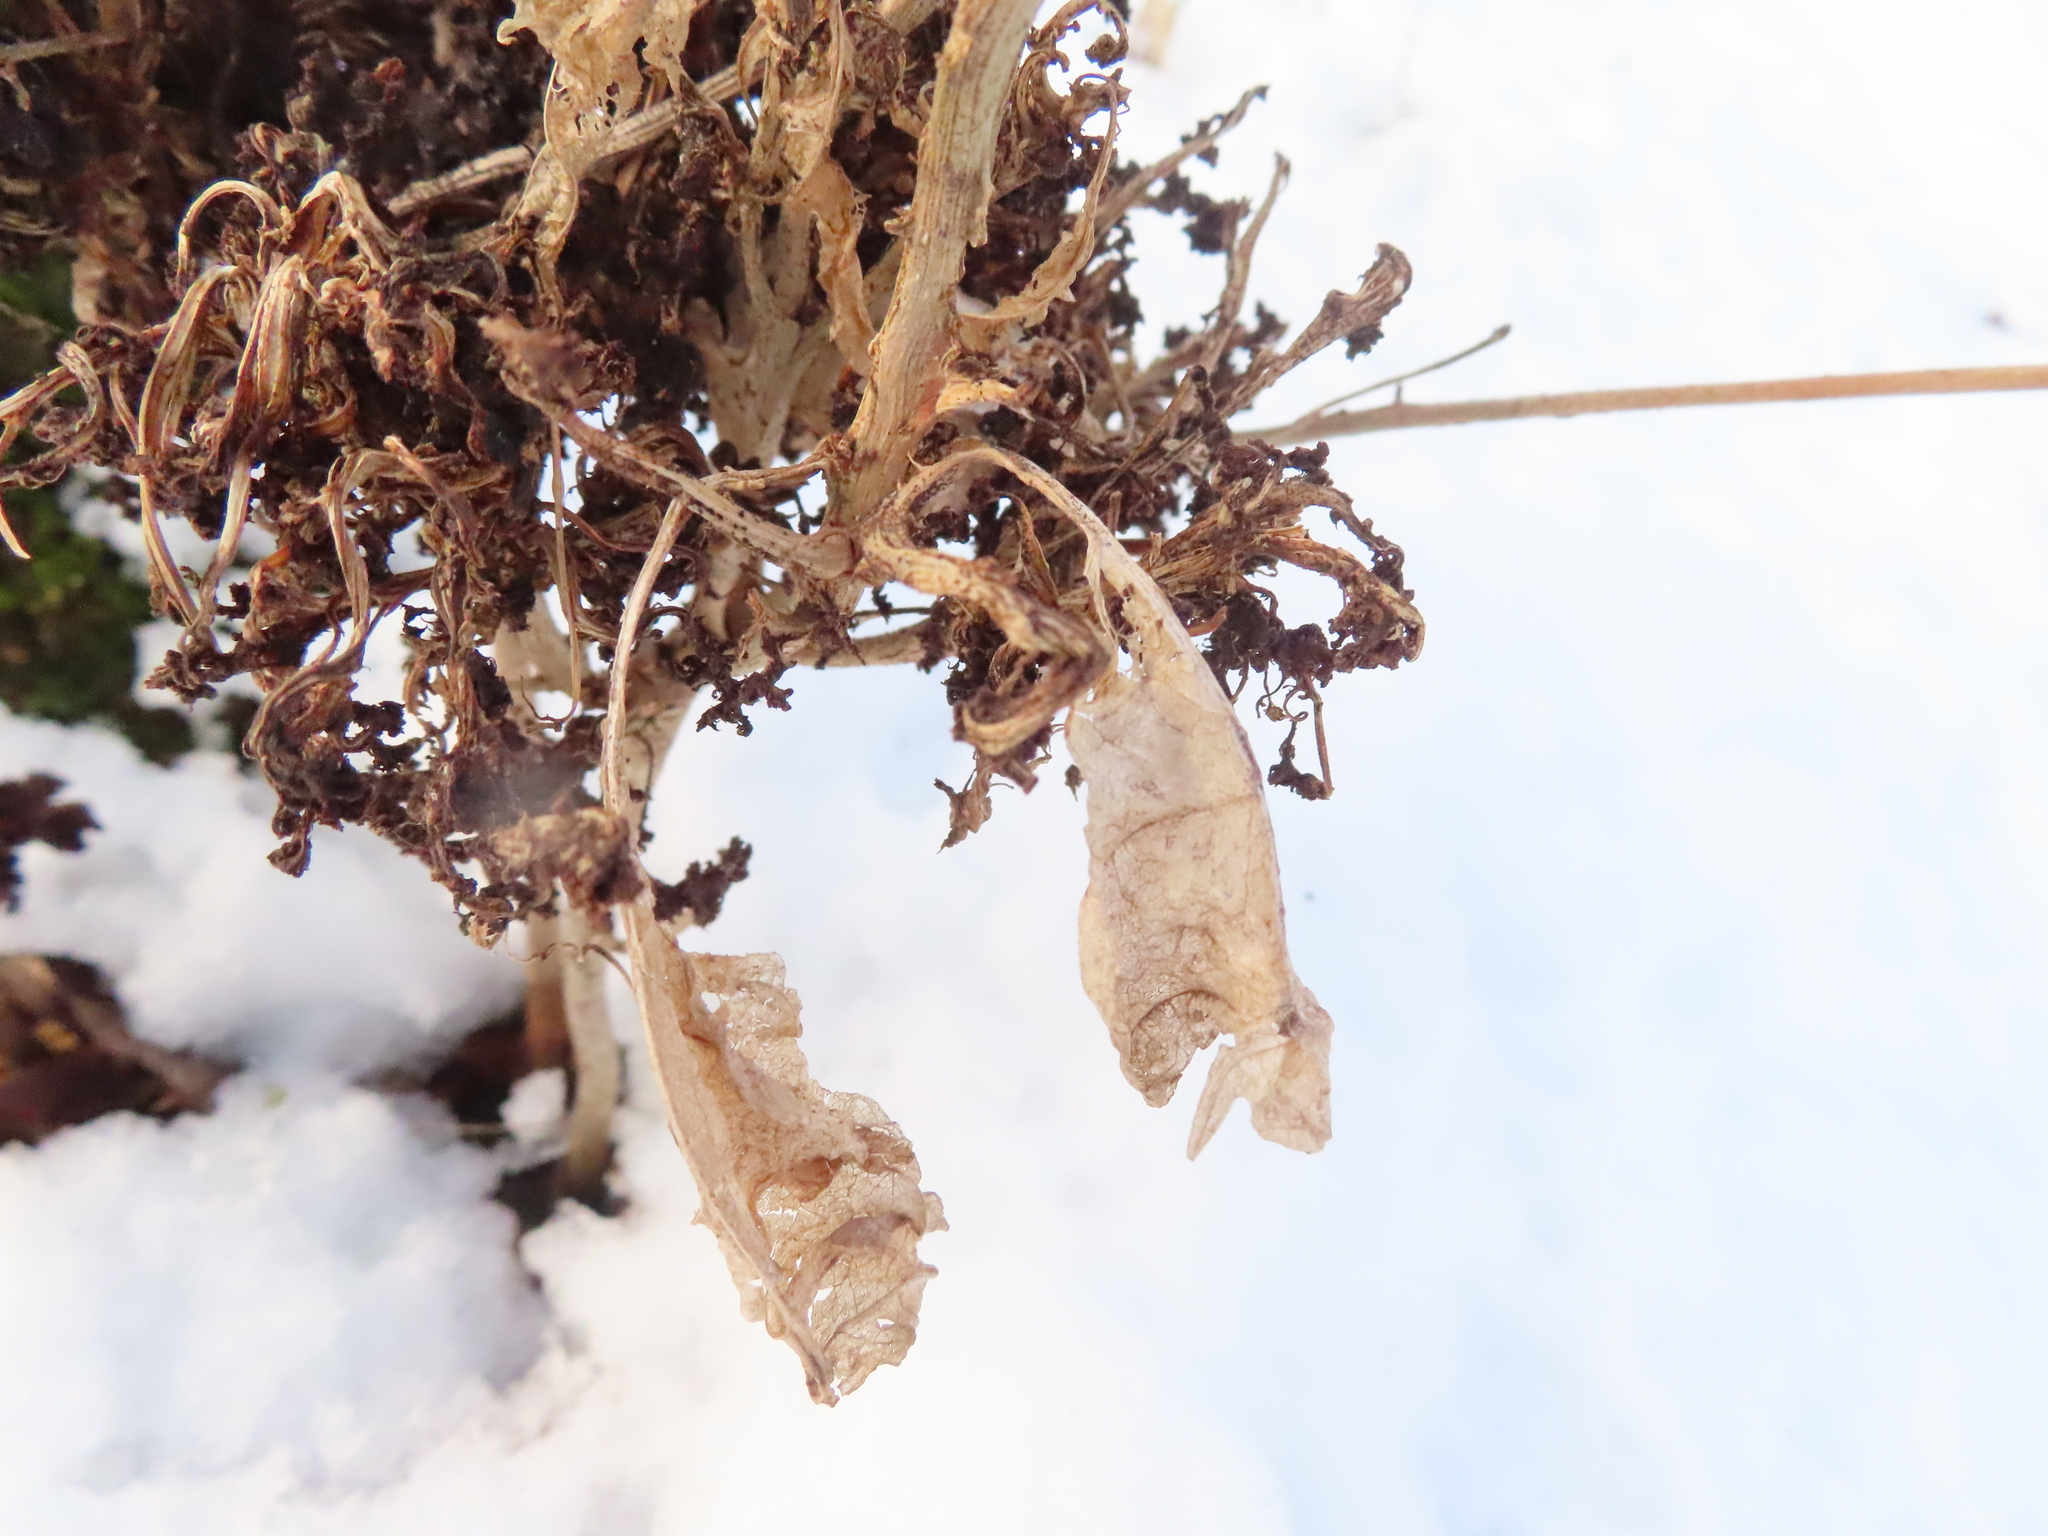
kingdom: Animalia
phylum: Arthropoda
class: Arachnida
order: Trombidiformes
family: Eriophyidae
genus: Aceria
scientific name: Aceria fraxiniflora
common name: Ash flower gall mite
